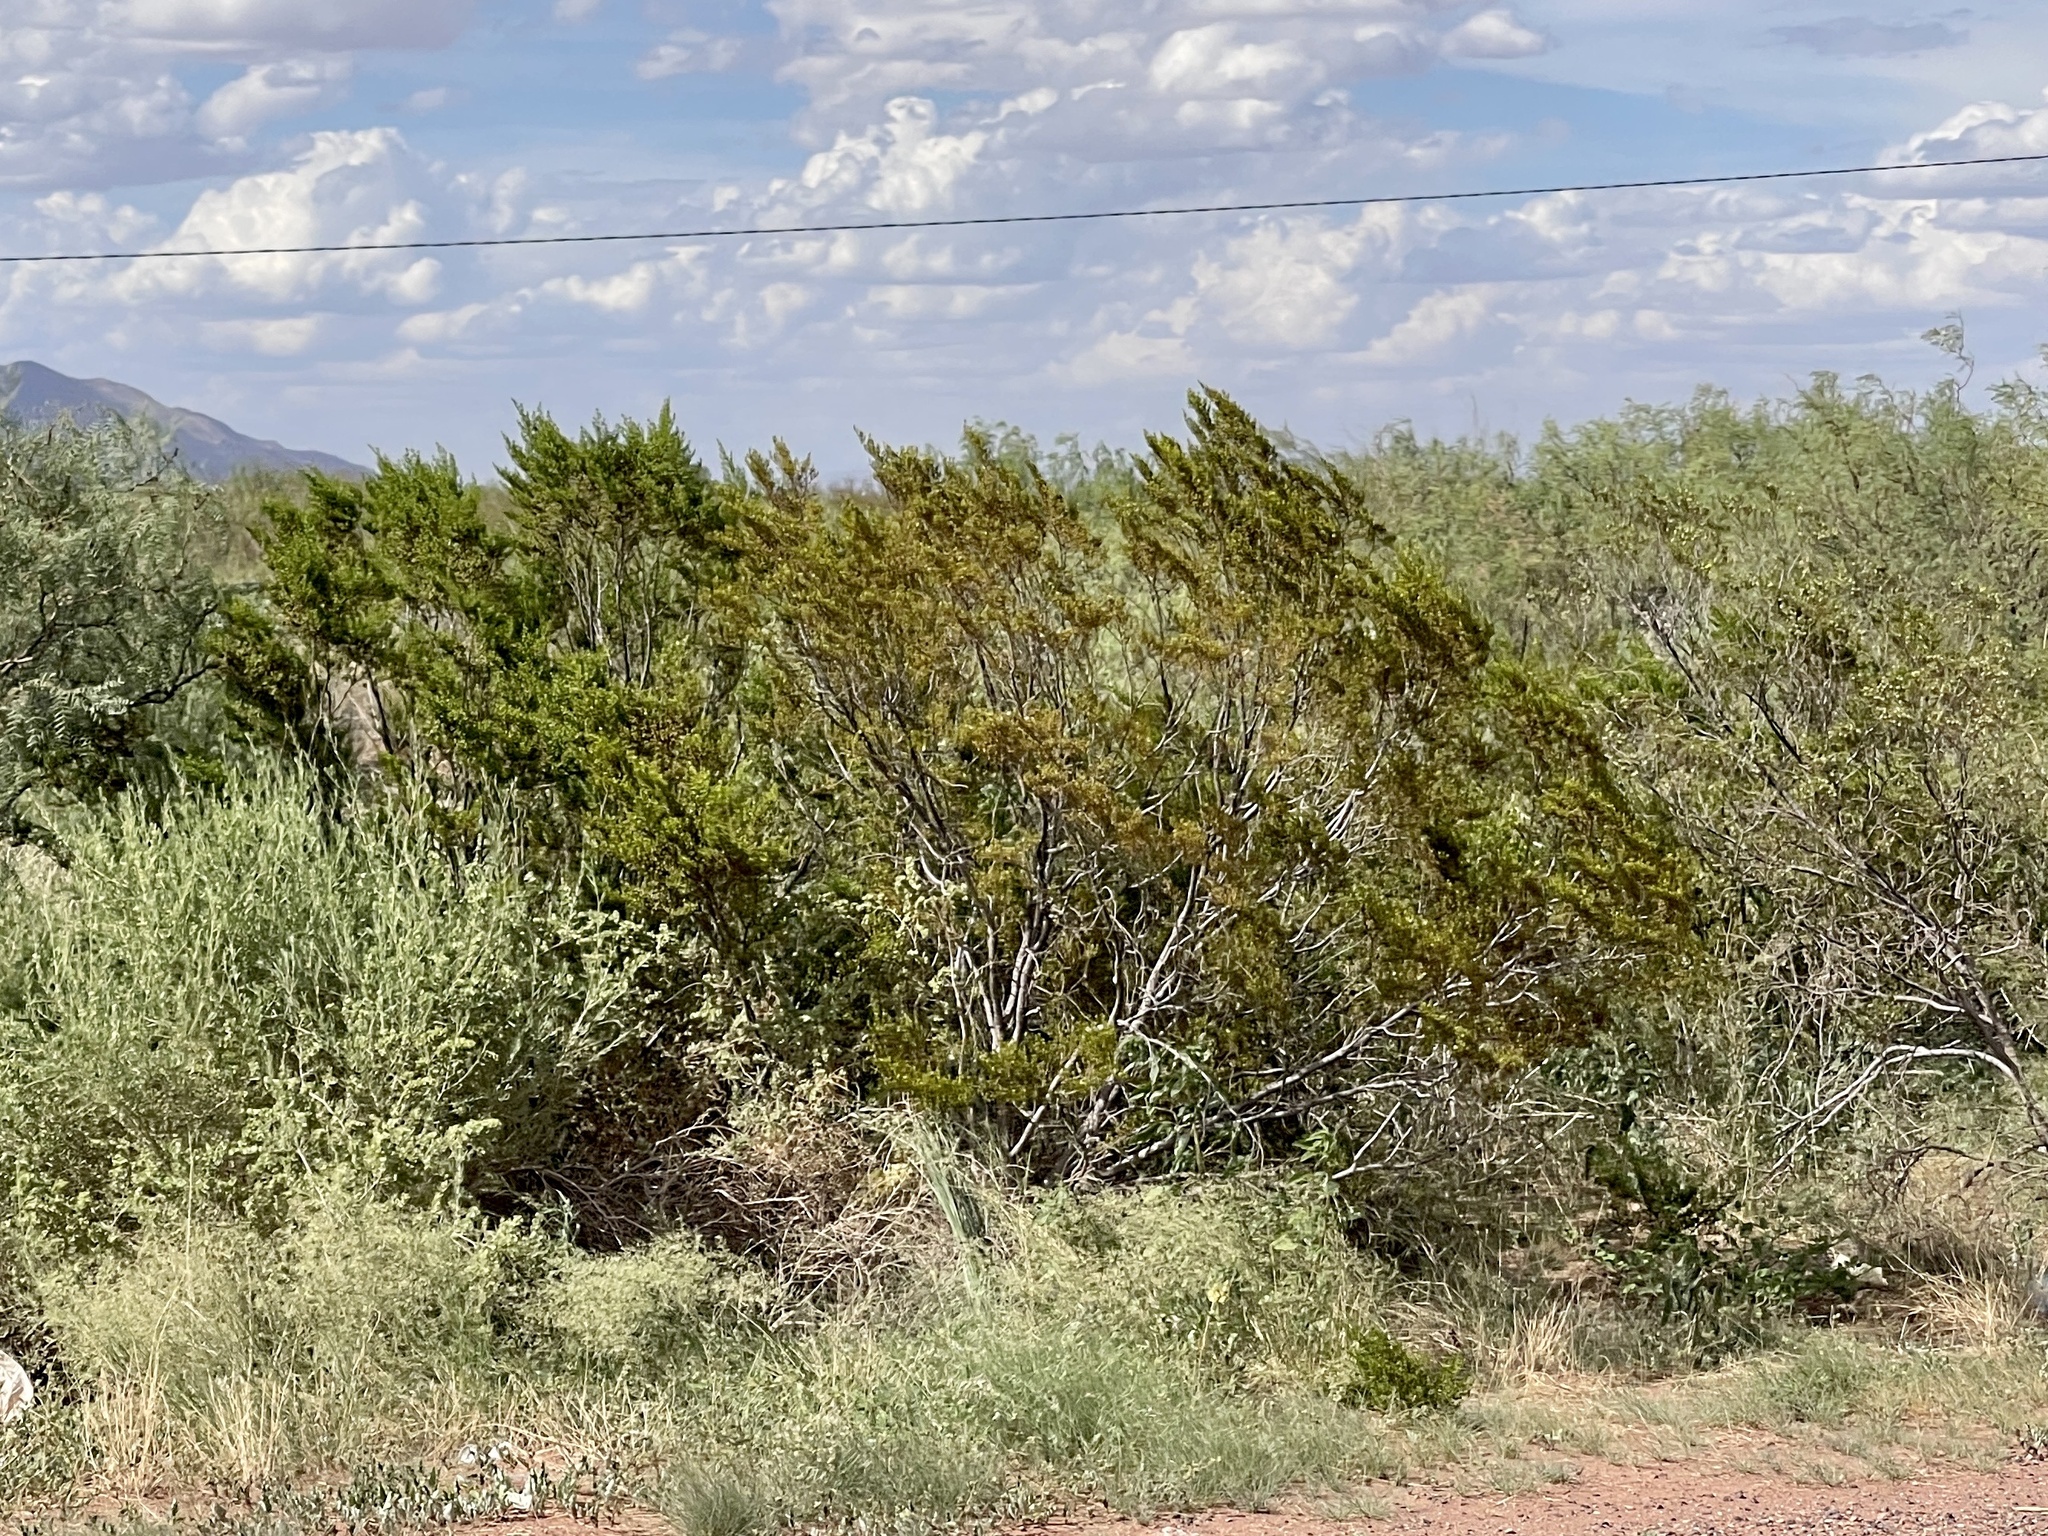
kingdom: Plantae
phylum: Tracheophyta
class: Magnoliopsida
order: Zygophyllales
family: Zygophyllaceae
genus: Larrea
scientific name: Larrea tridentata
